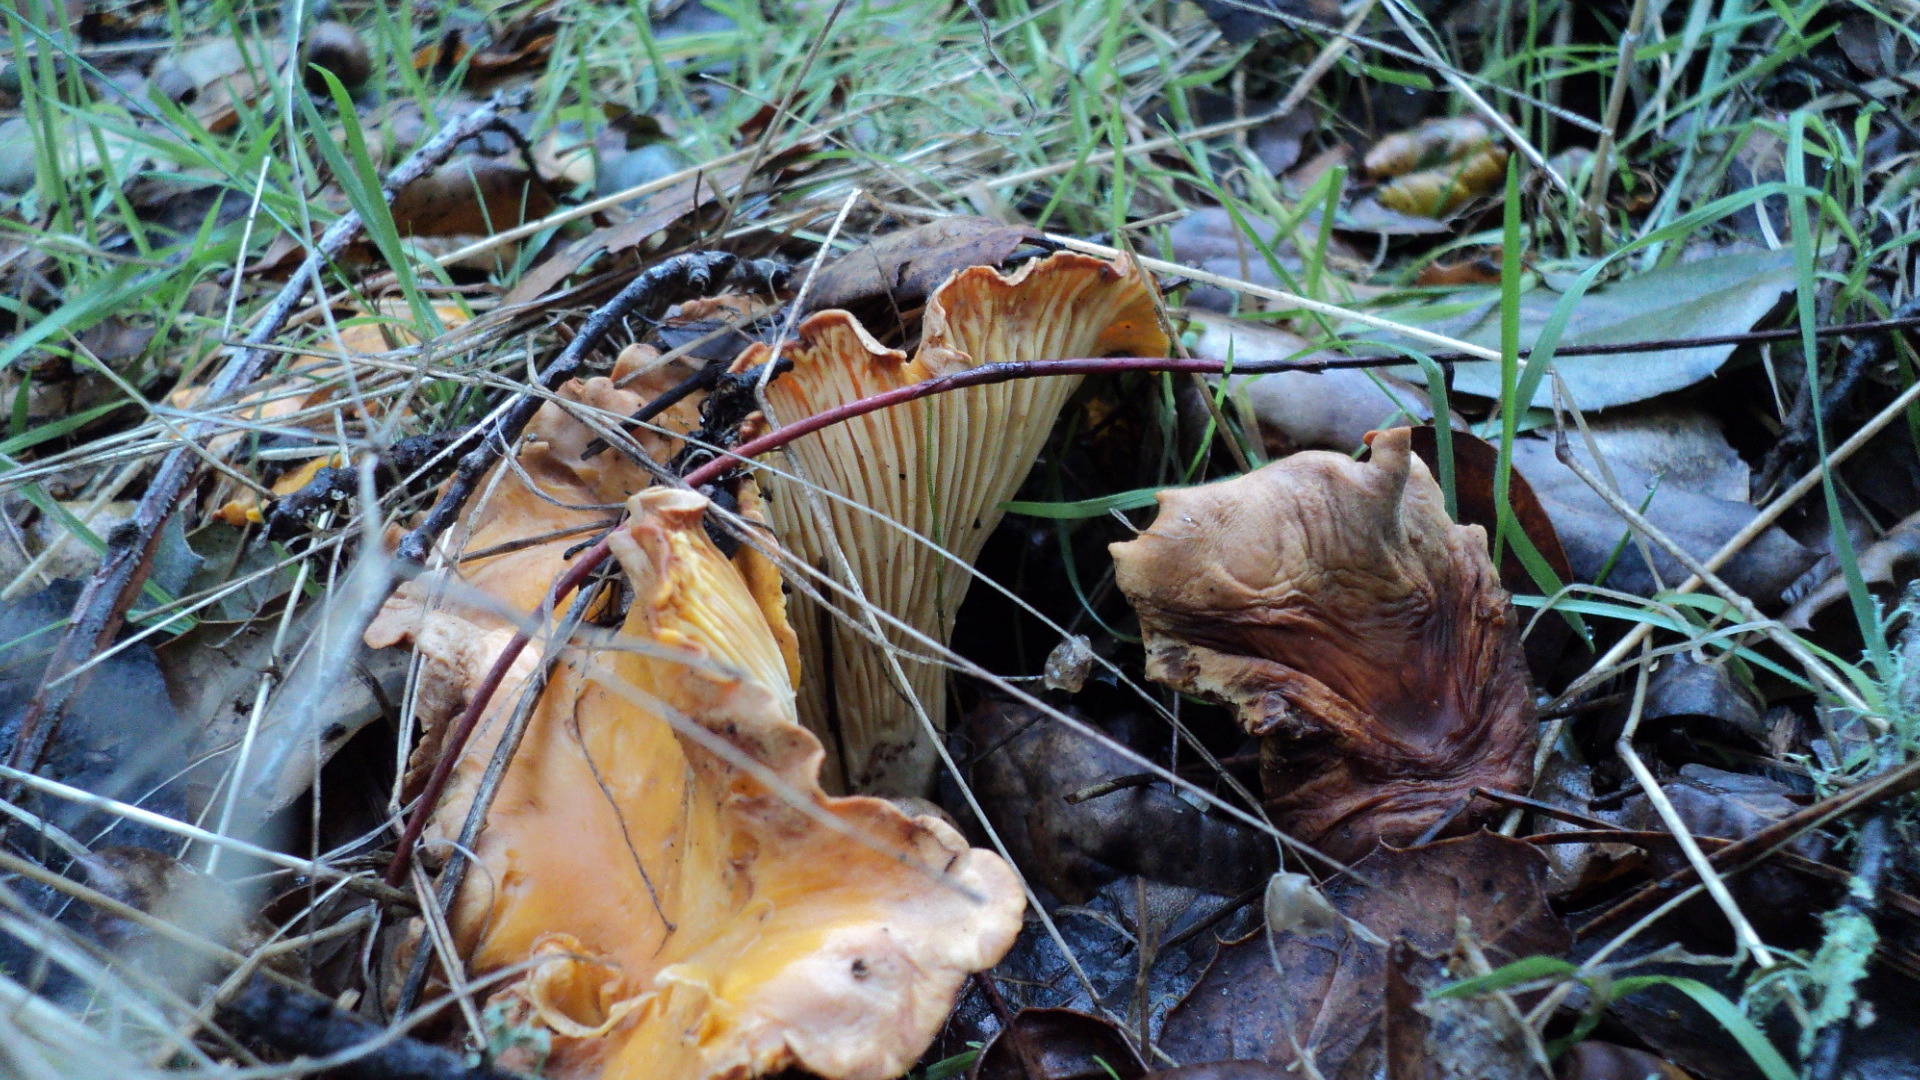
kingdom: Fungi
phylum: Basidiomycota
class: Agaricomycetes
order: Cantharellales
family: Hydnaceae
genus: Cantharellus
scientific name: Cantharellus californicus
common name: California golden chanterelle
